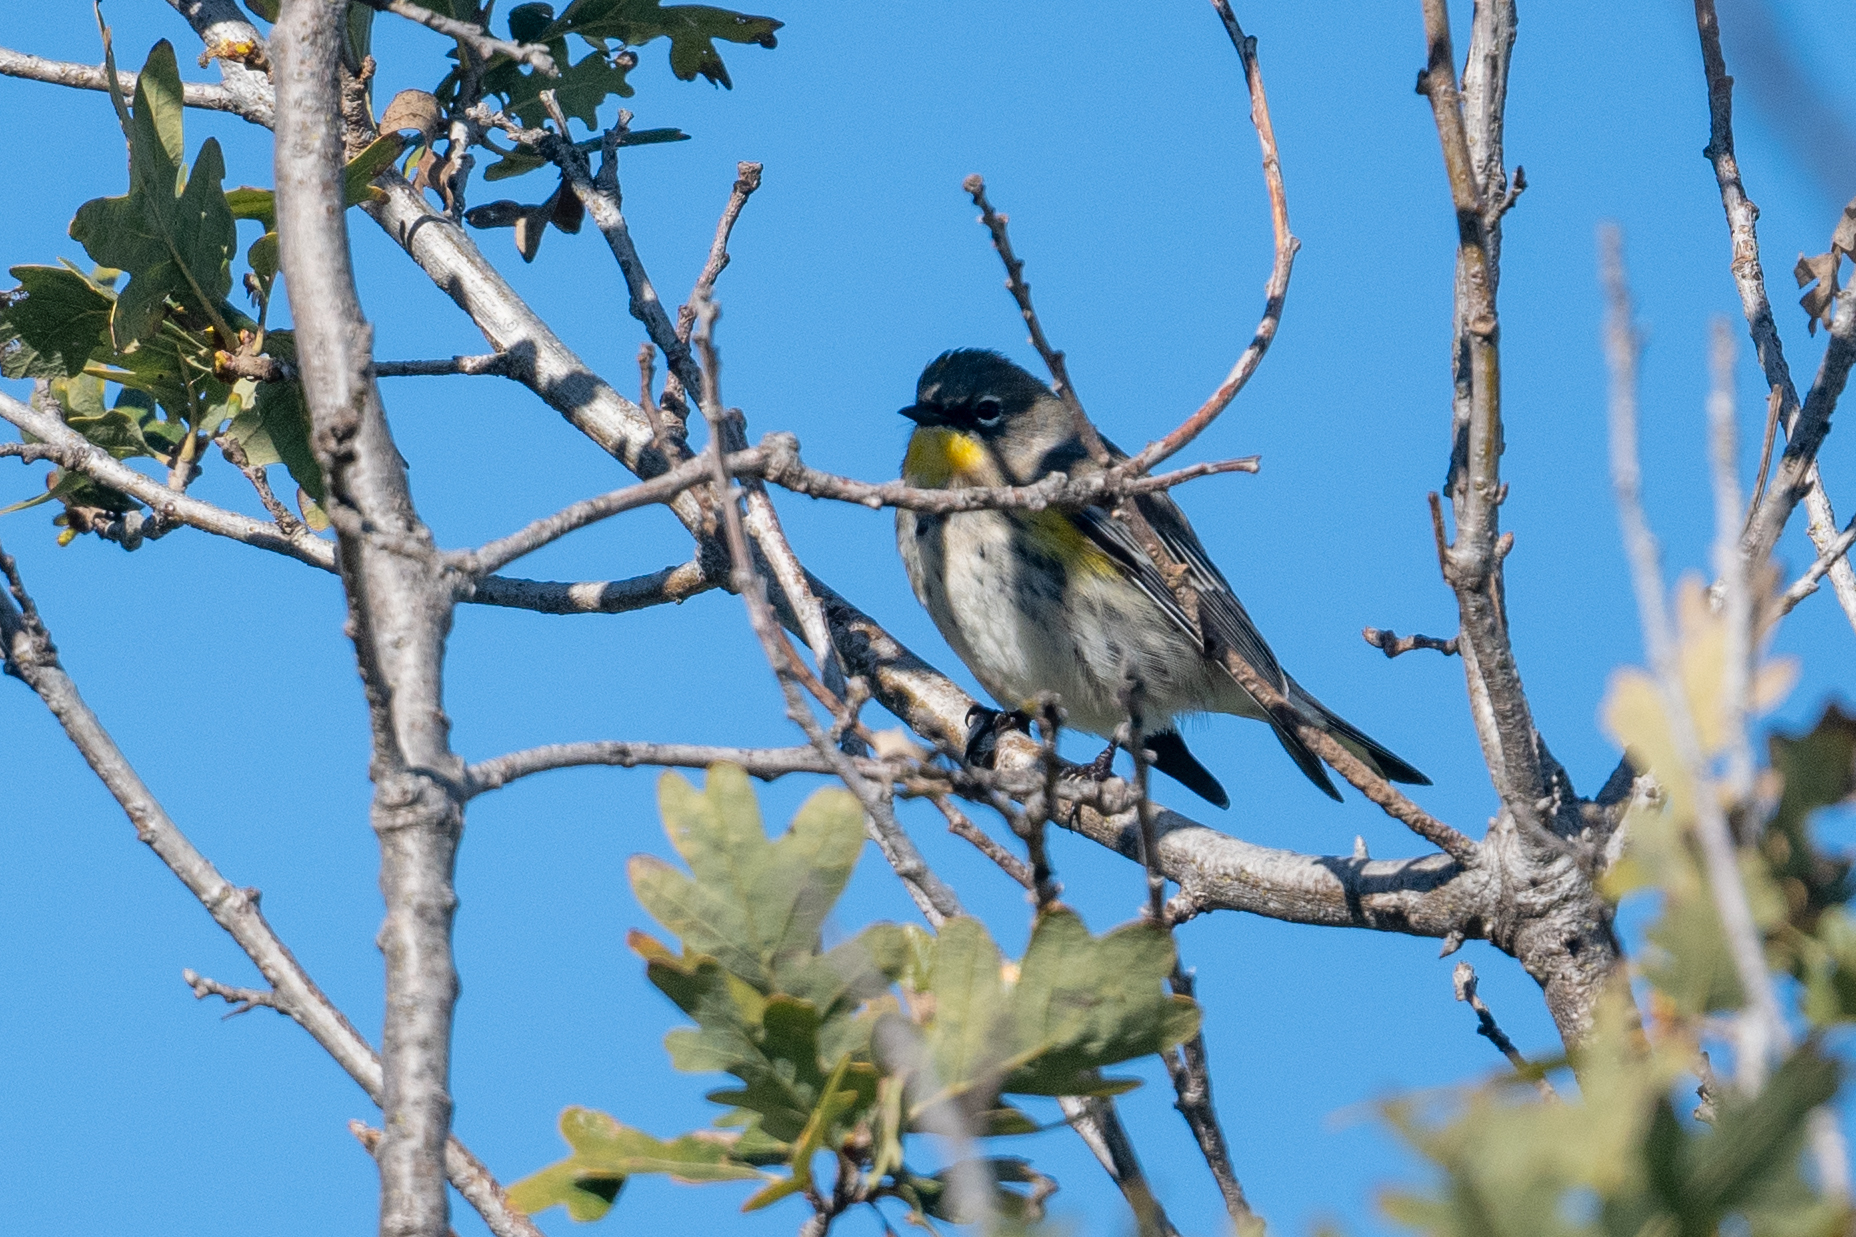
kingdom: Animalia
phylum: Chordata
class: Aves
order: Passeriformes
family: Parulidae
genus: Setophaga
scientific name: Setophaga coronata
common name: Myrtle warbler
